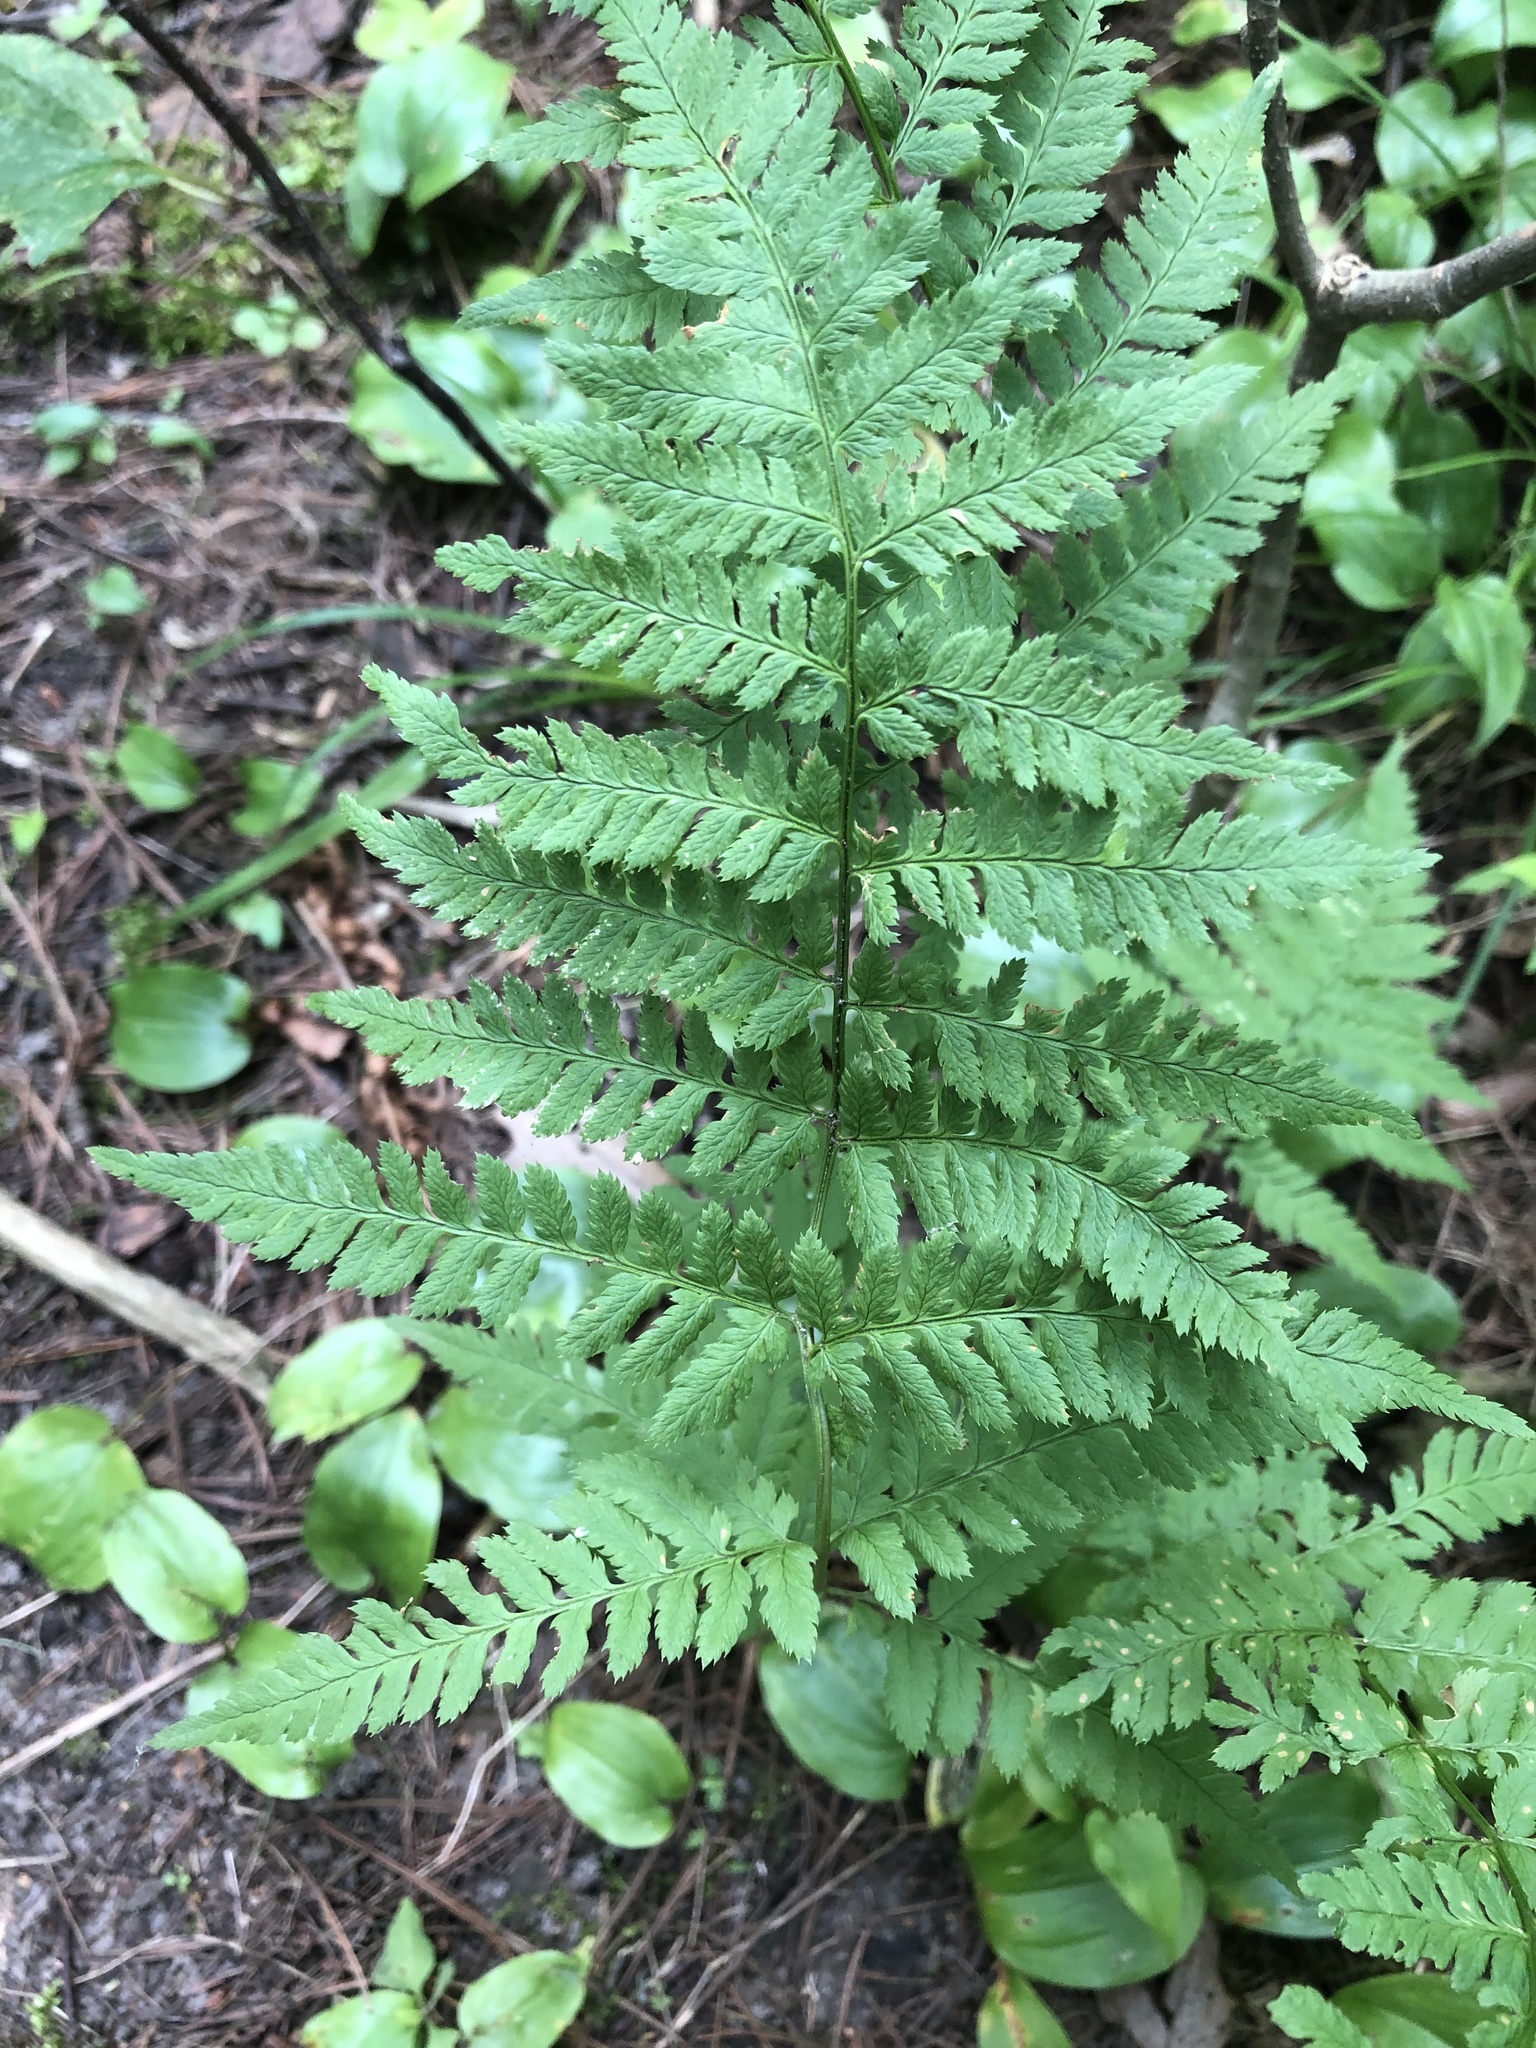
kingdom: Plantae
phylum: Tracheophyta
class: Polypodiopsida
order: Polypodiales
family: Dryopteridaceae
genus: Dryopteris
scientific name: Dryopteris carthusiana
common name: Narrow buckler-fern
